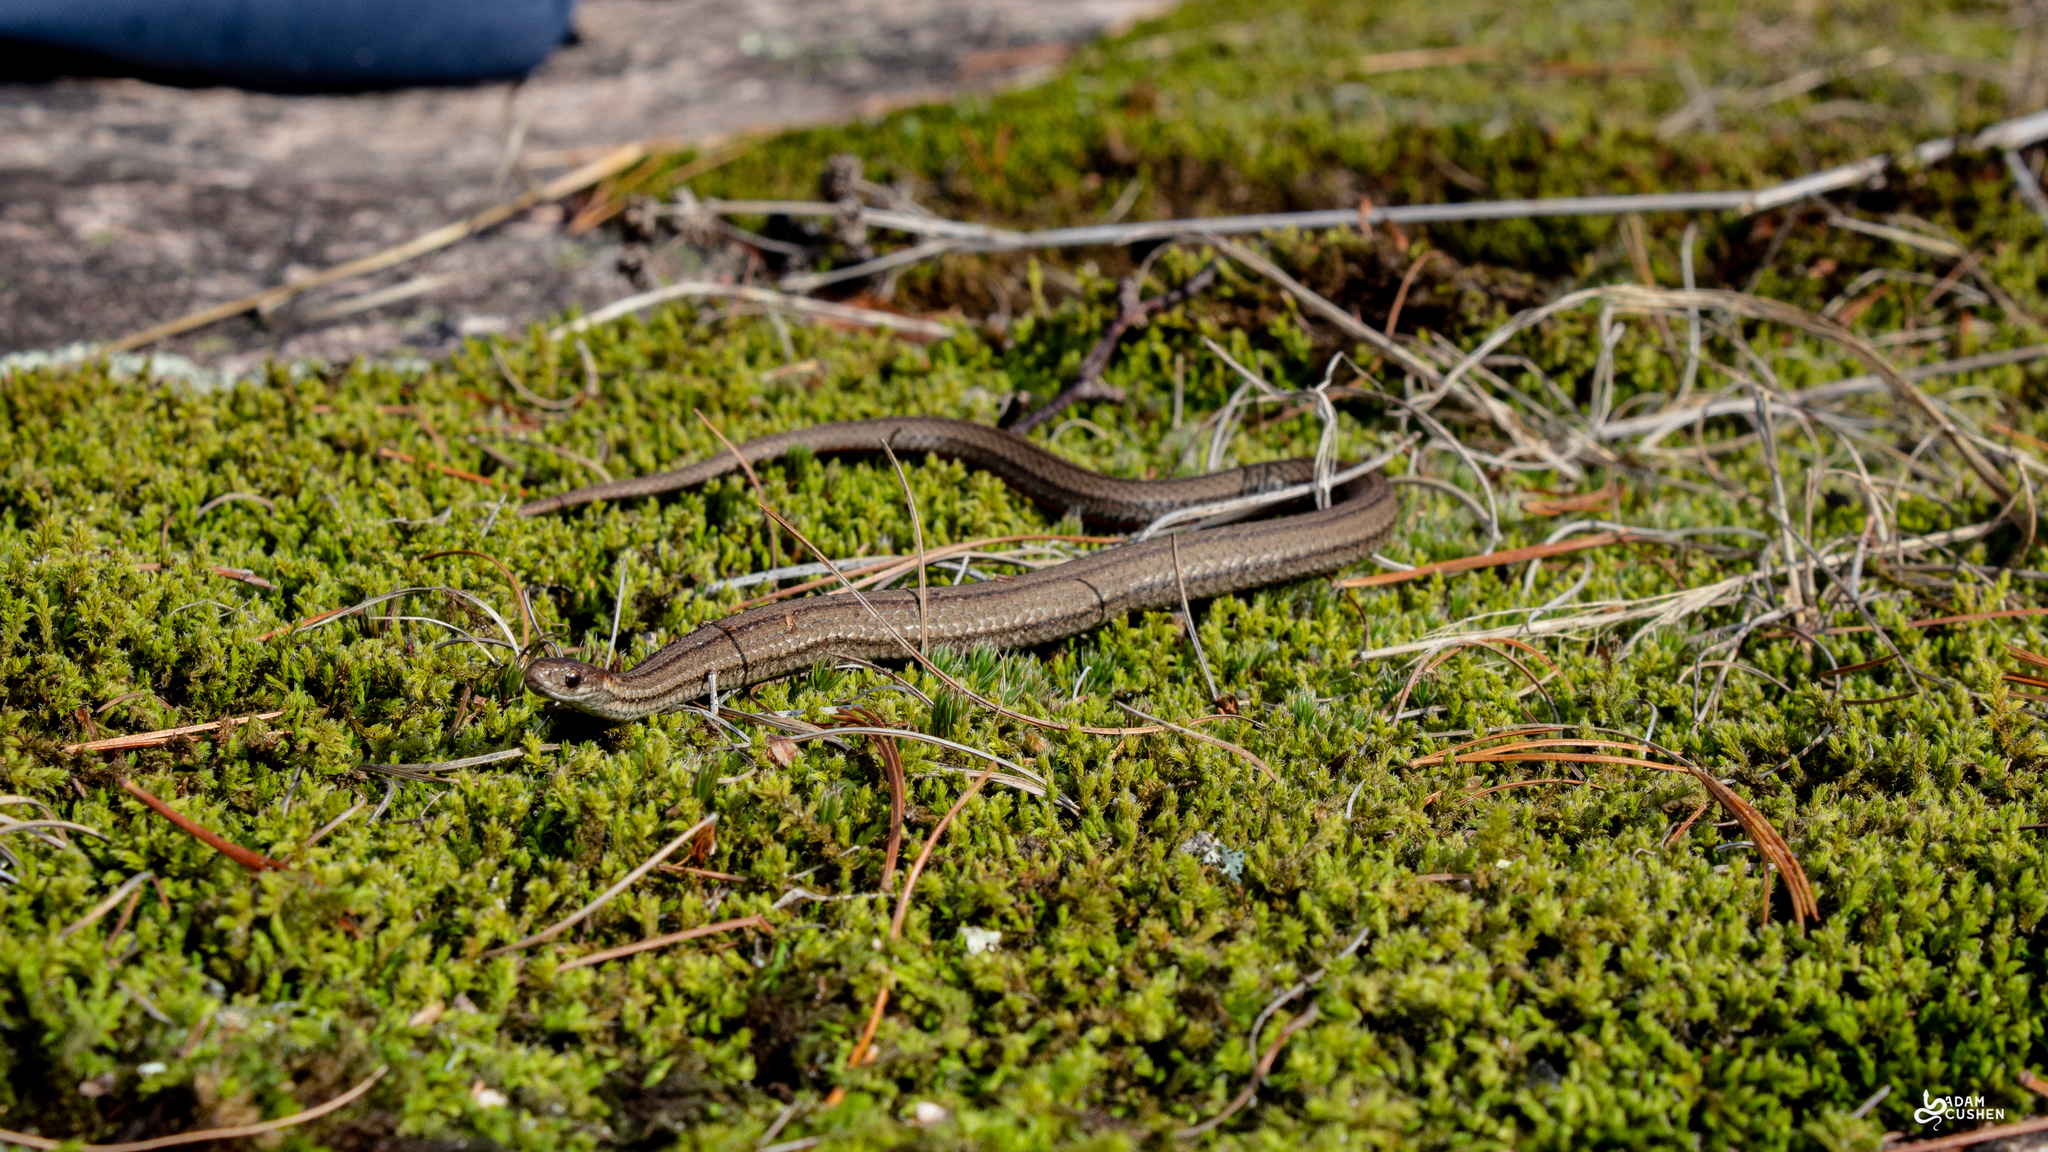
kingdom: Animalia
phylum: Chordata
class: Squamata
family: Colubridae
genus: Storeria
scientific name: Storeria occipitomaculata
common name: Redbelly snake
